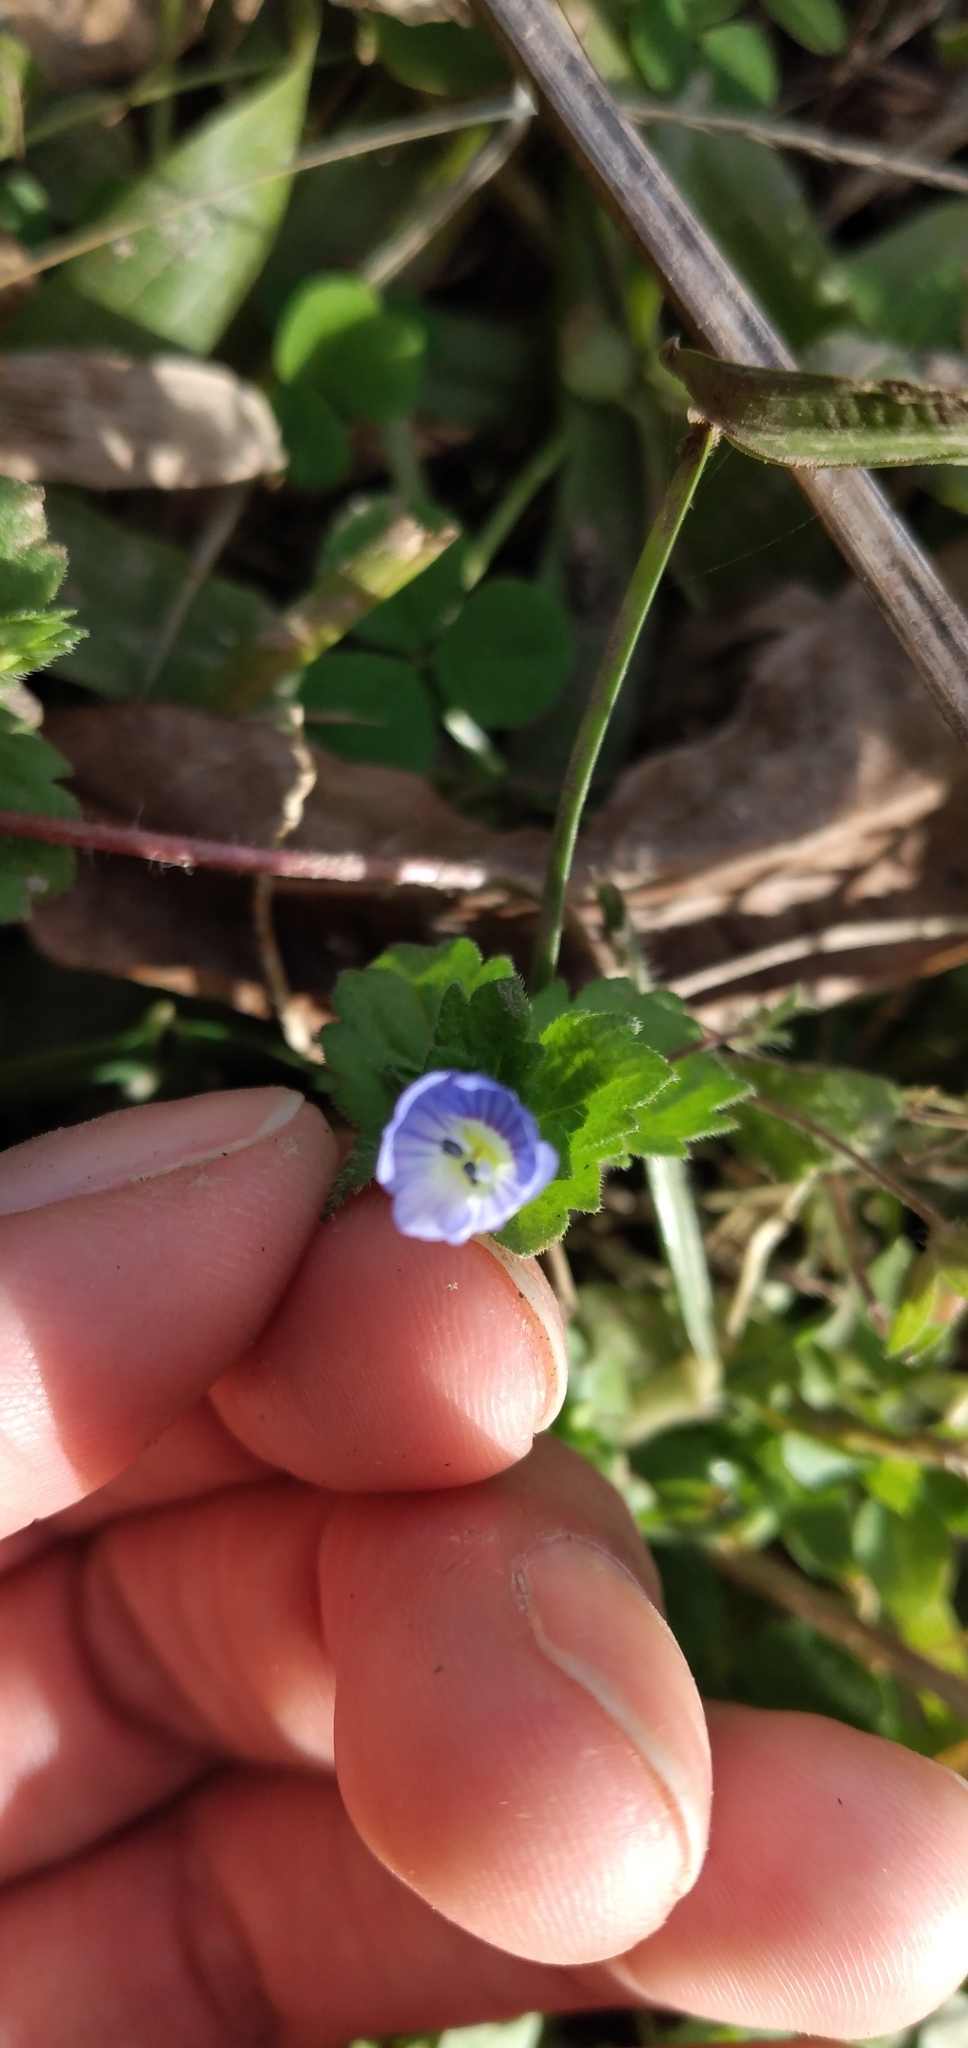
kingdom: Plantae
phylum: Tracheophyta
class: Magnoliopsida
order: Lamiales
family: Plantaginaceae
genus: Veronica
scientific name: Veronica persica
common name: Common field-speedwell
